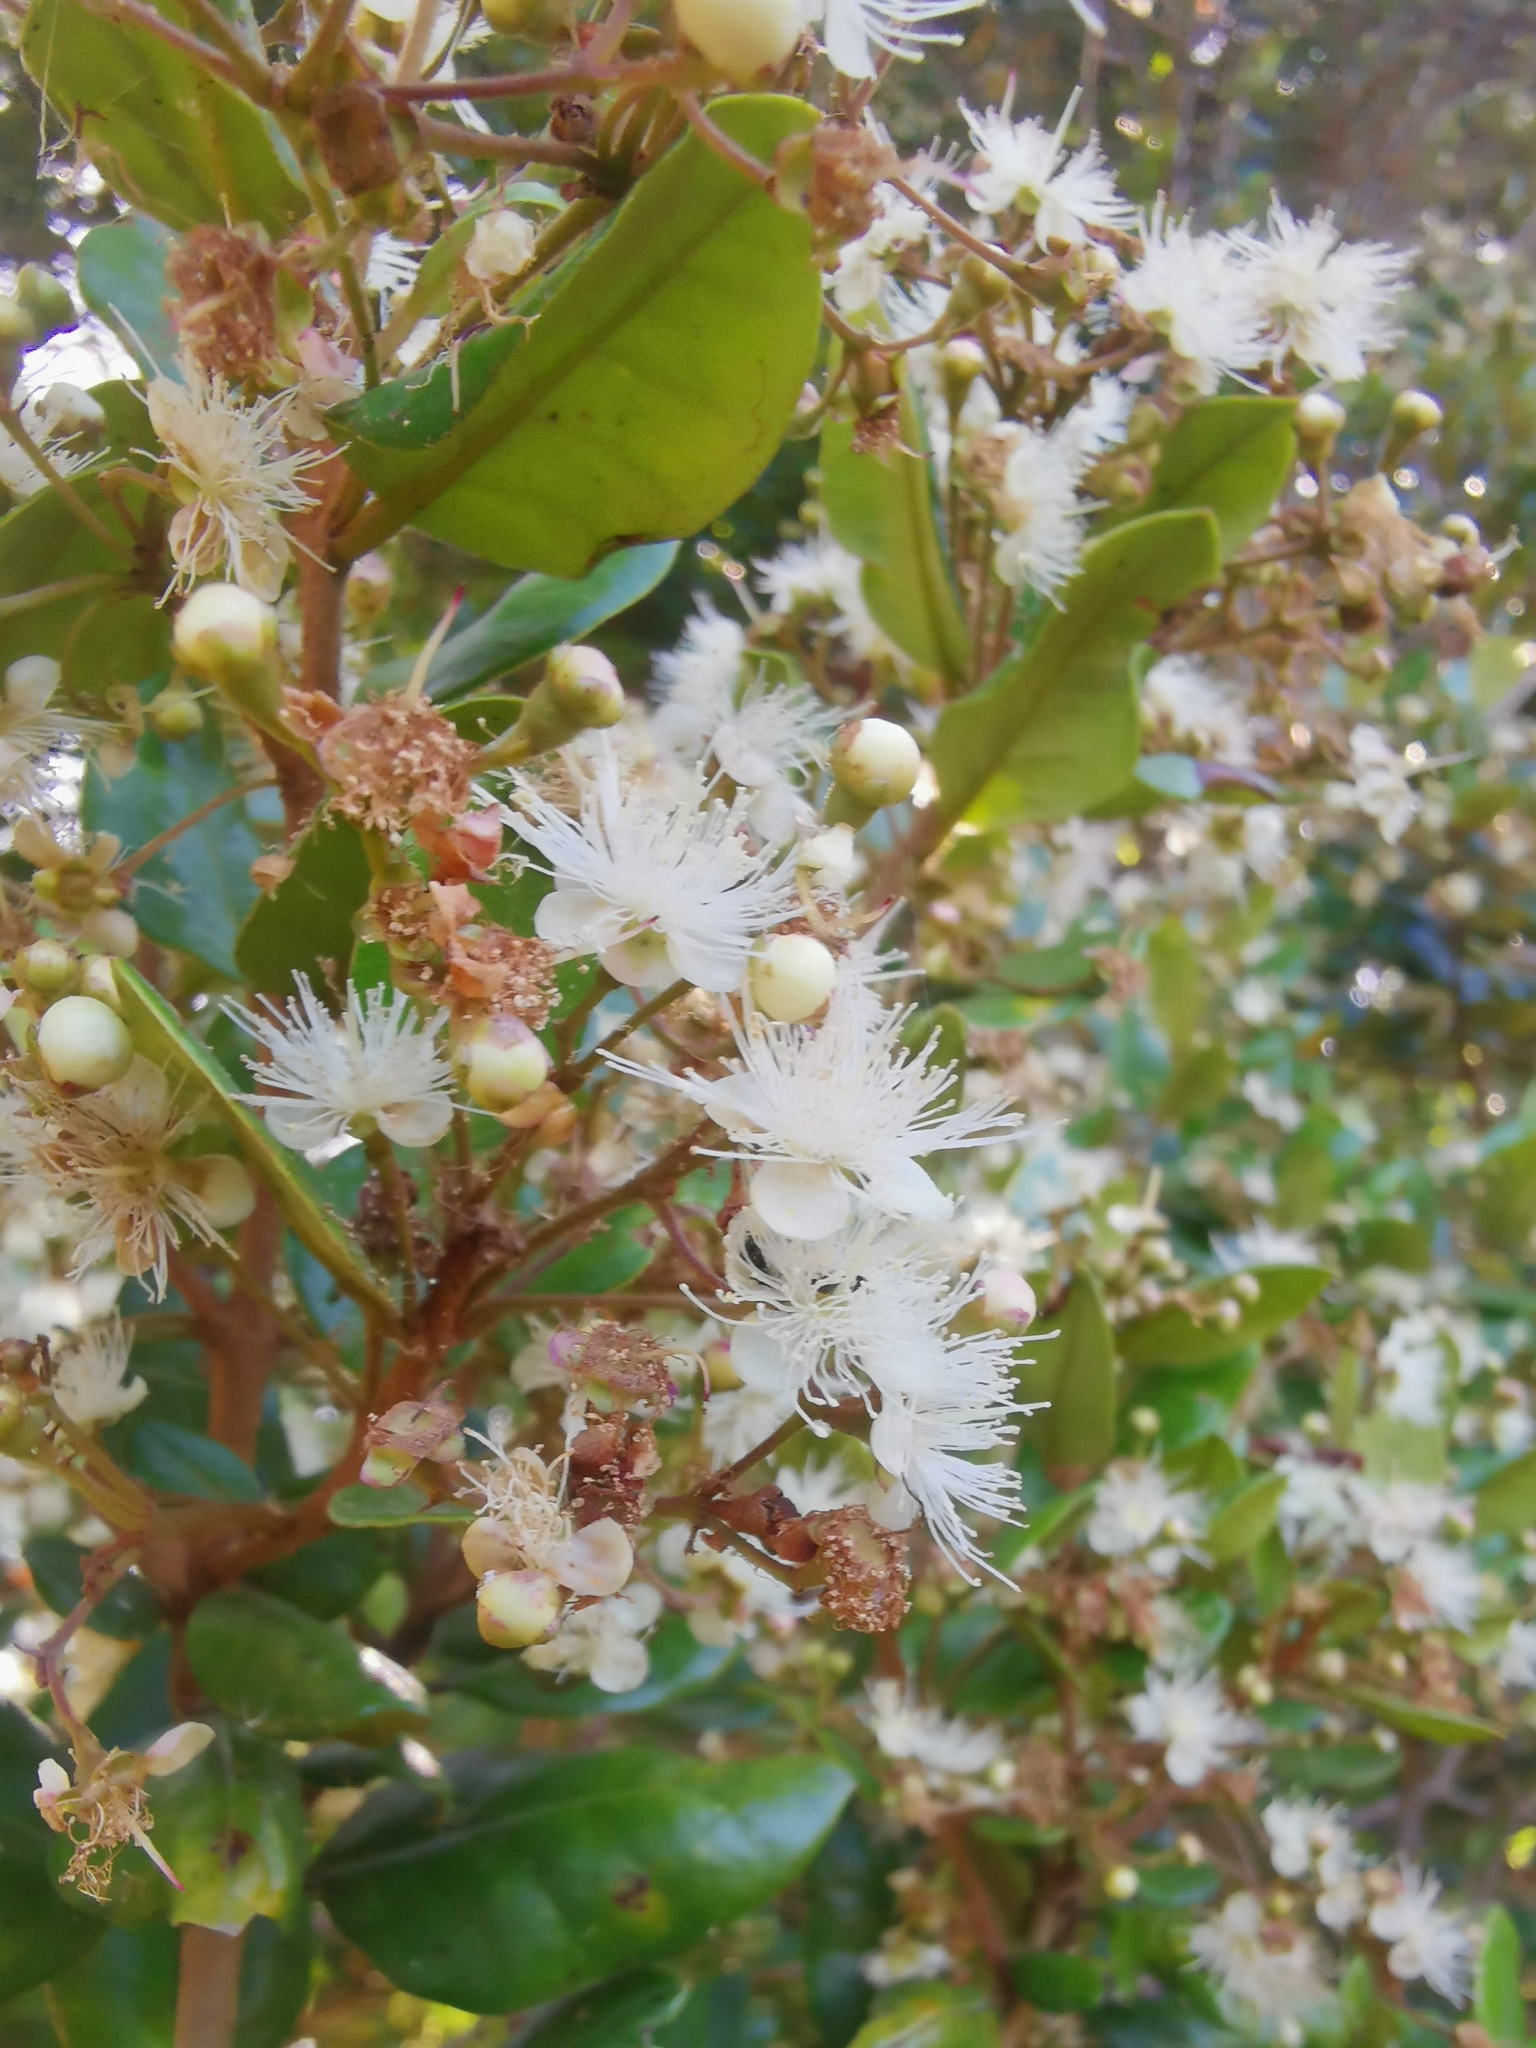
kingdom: Plantae
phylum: Tracheophyta
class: Magnoliopsida
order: Myrtales
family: Myrtaceae
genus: Myrceugenia
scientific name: Myrceugenia exsucca
